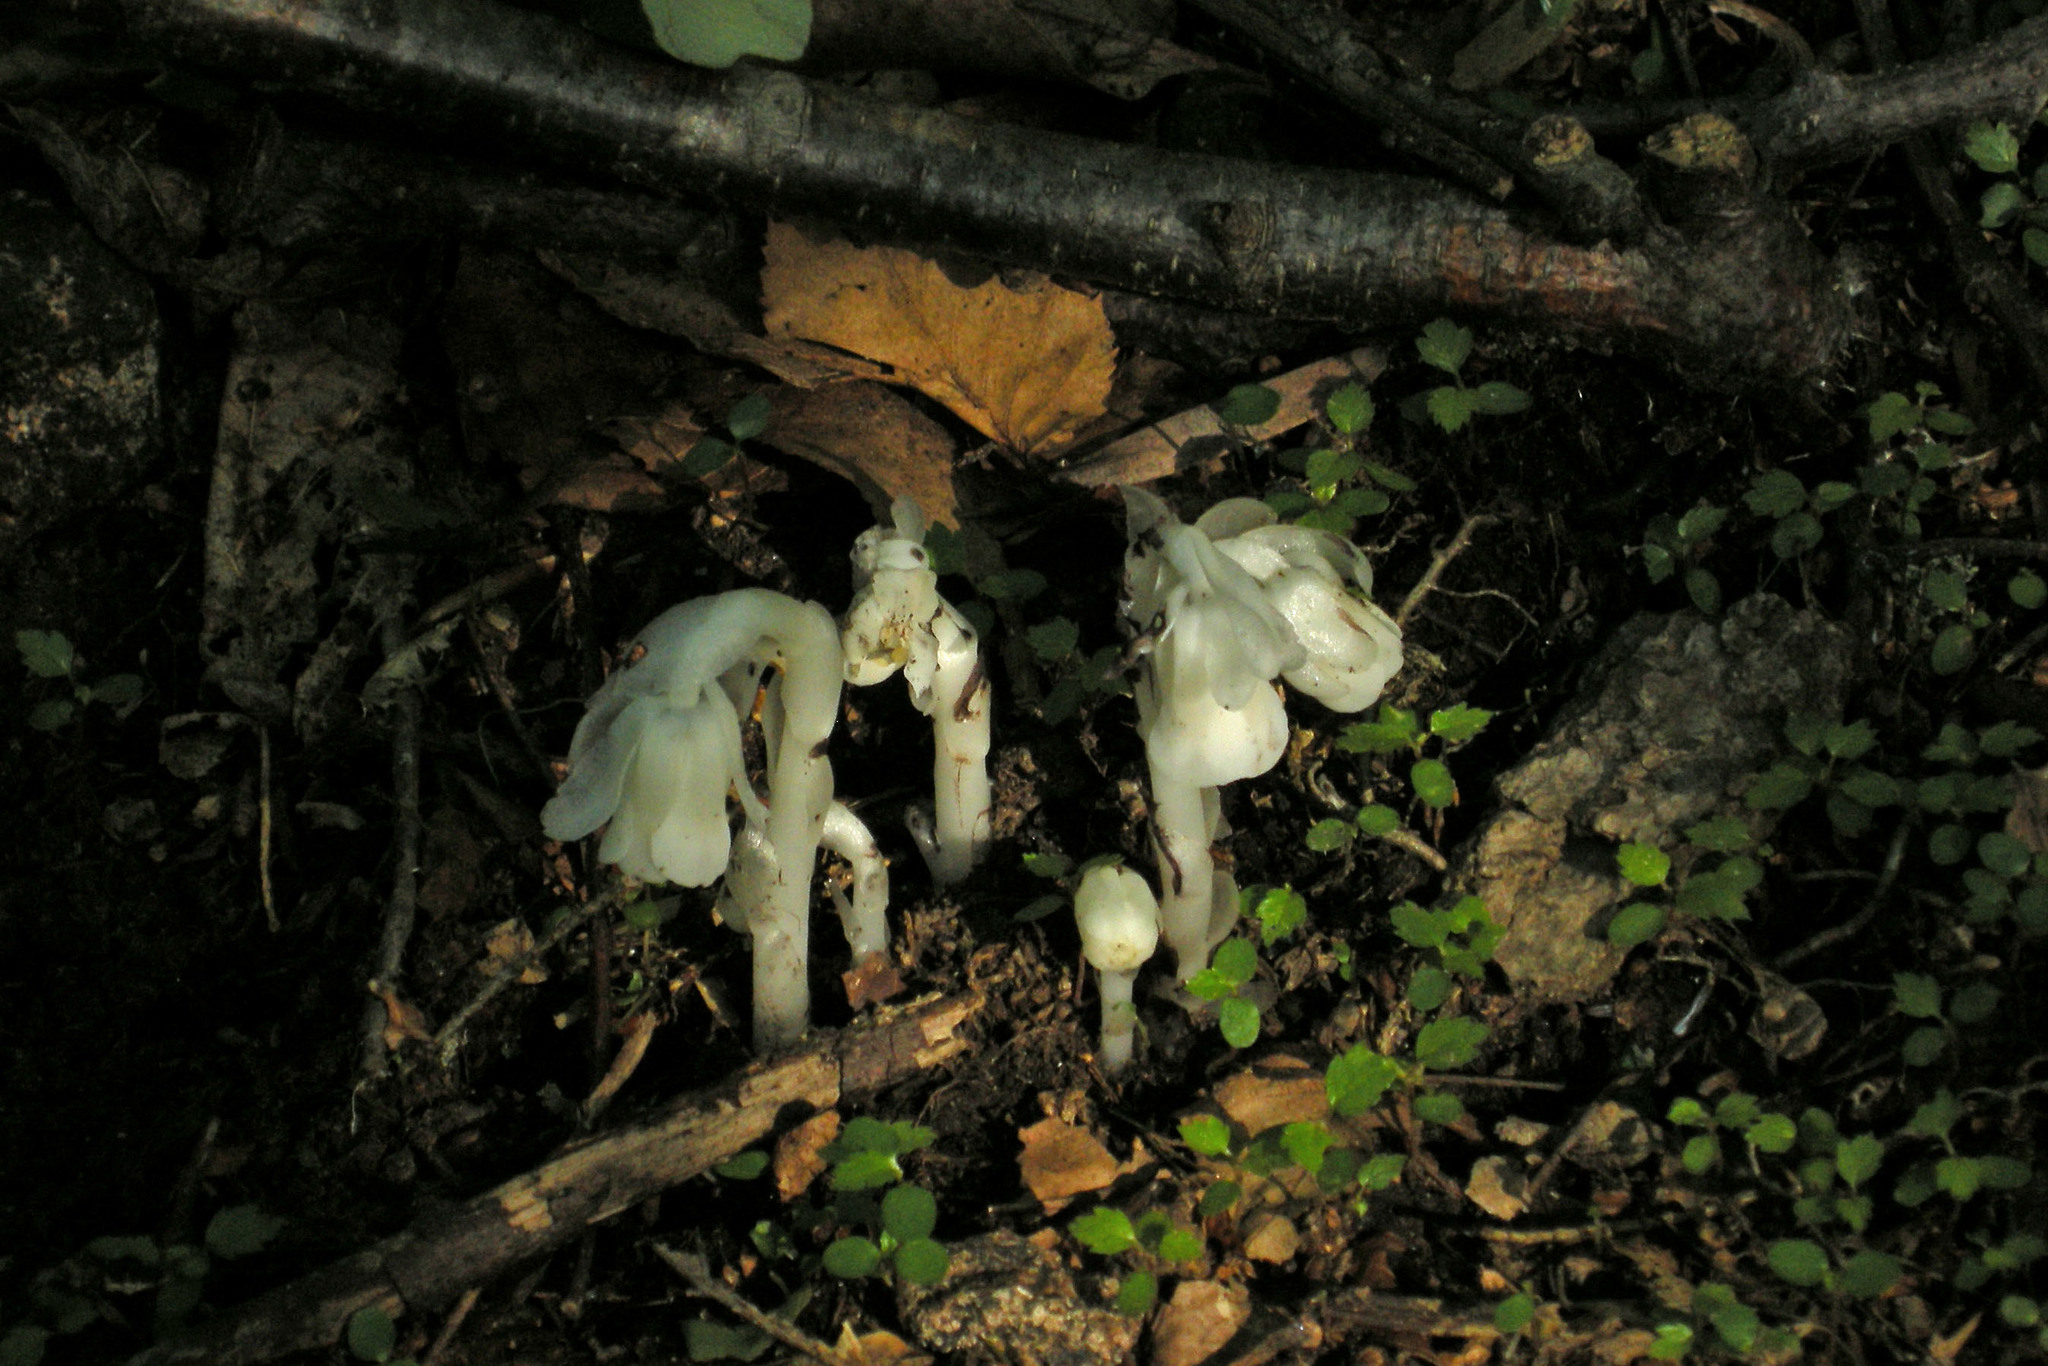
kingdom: Plantae
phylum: Tracheophyta
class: Magnoliopsida
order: Ericales
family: Ericaceae
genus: Monotropa
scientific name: Monotropa uniflora
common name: Convulsion root
